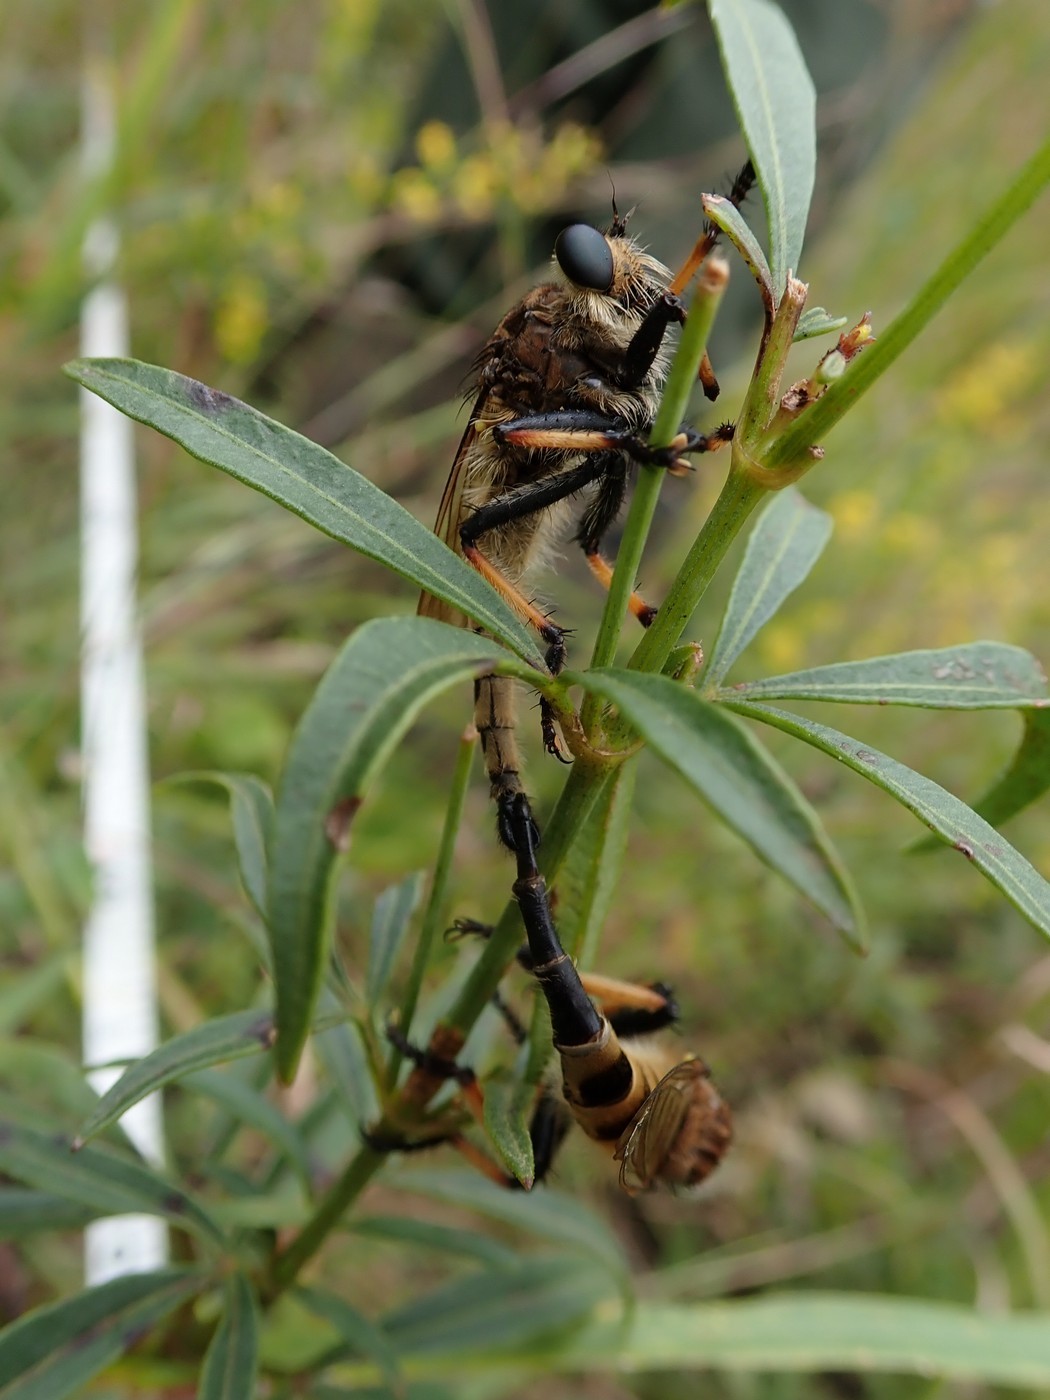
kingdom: Animalia
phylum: Arthropoda
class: Insecta
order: Diptera
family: Asilidae
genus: Promachus
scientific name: Promachus rufipes
